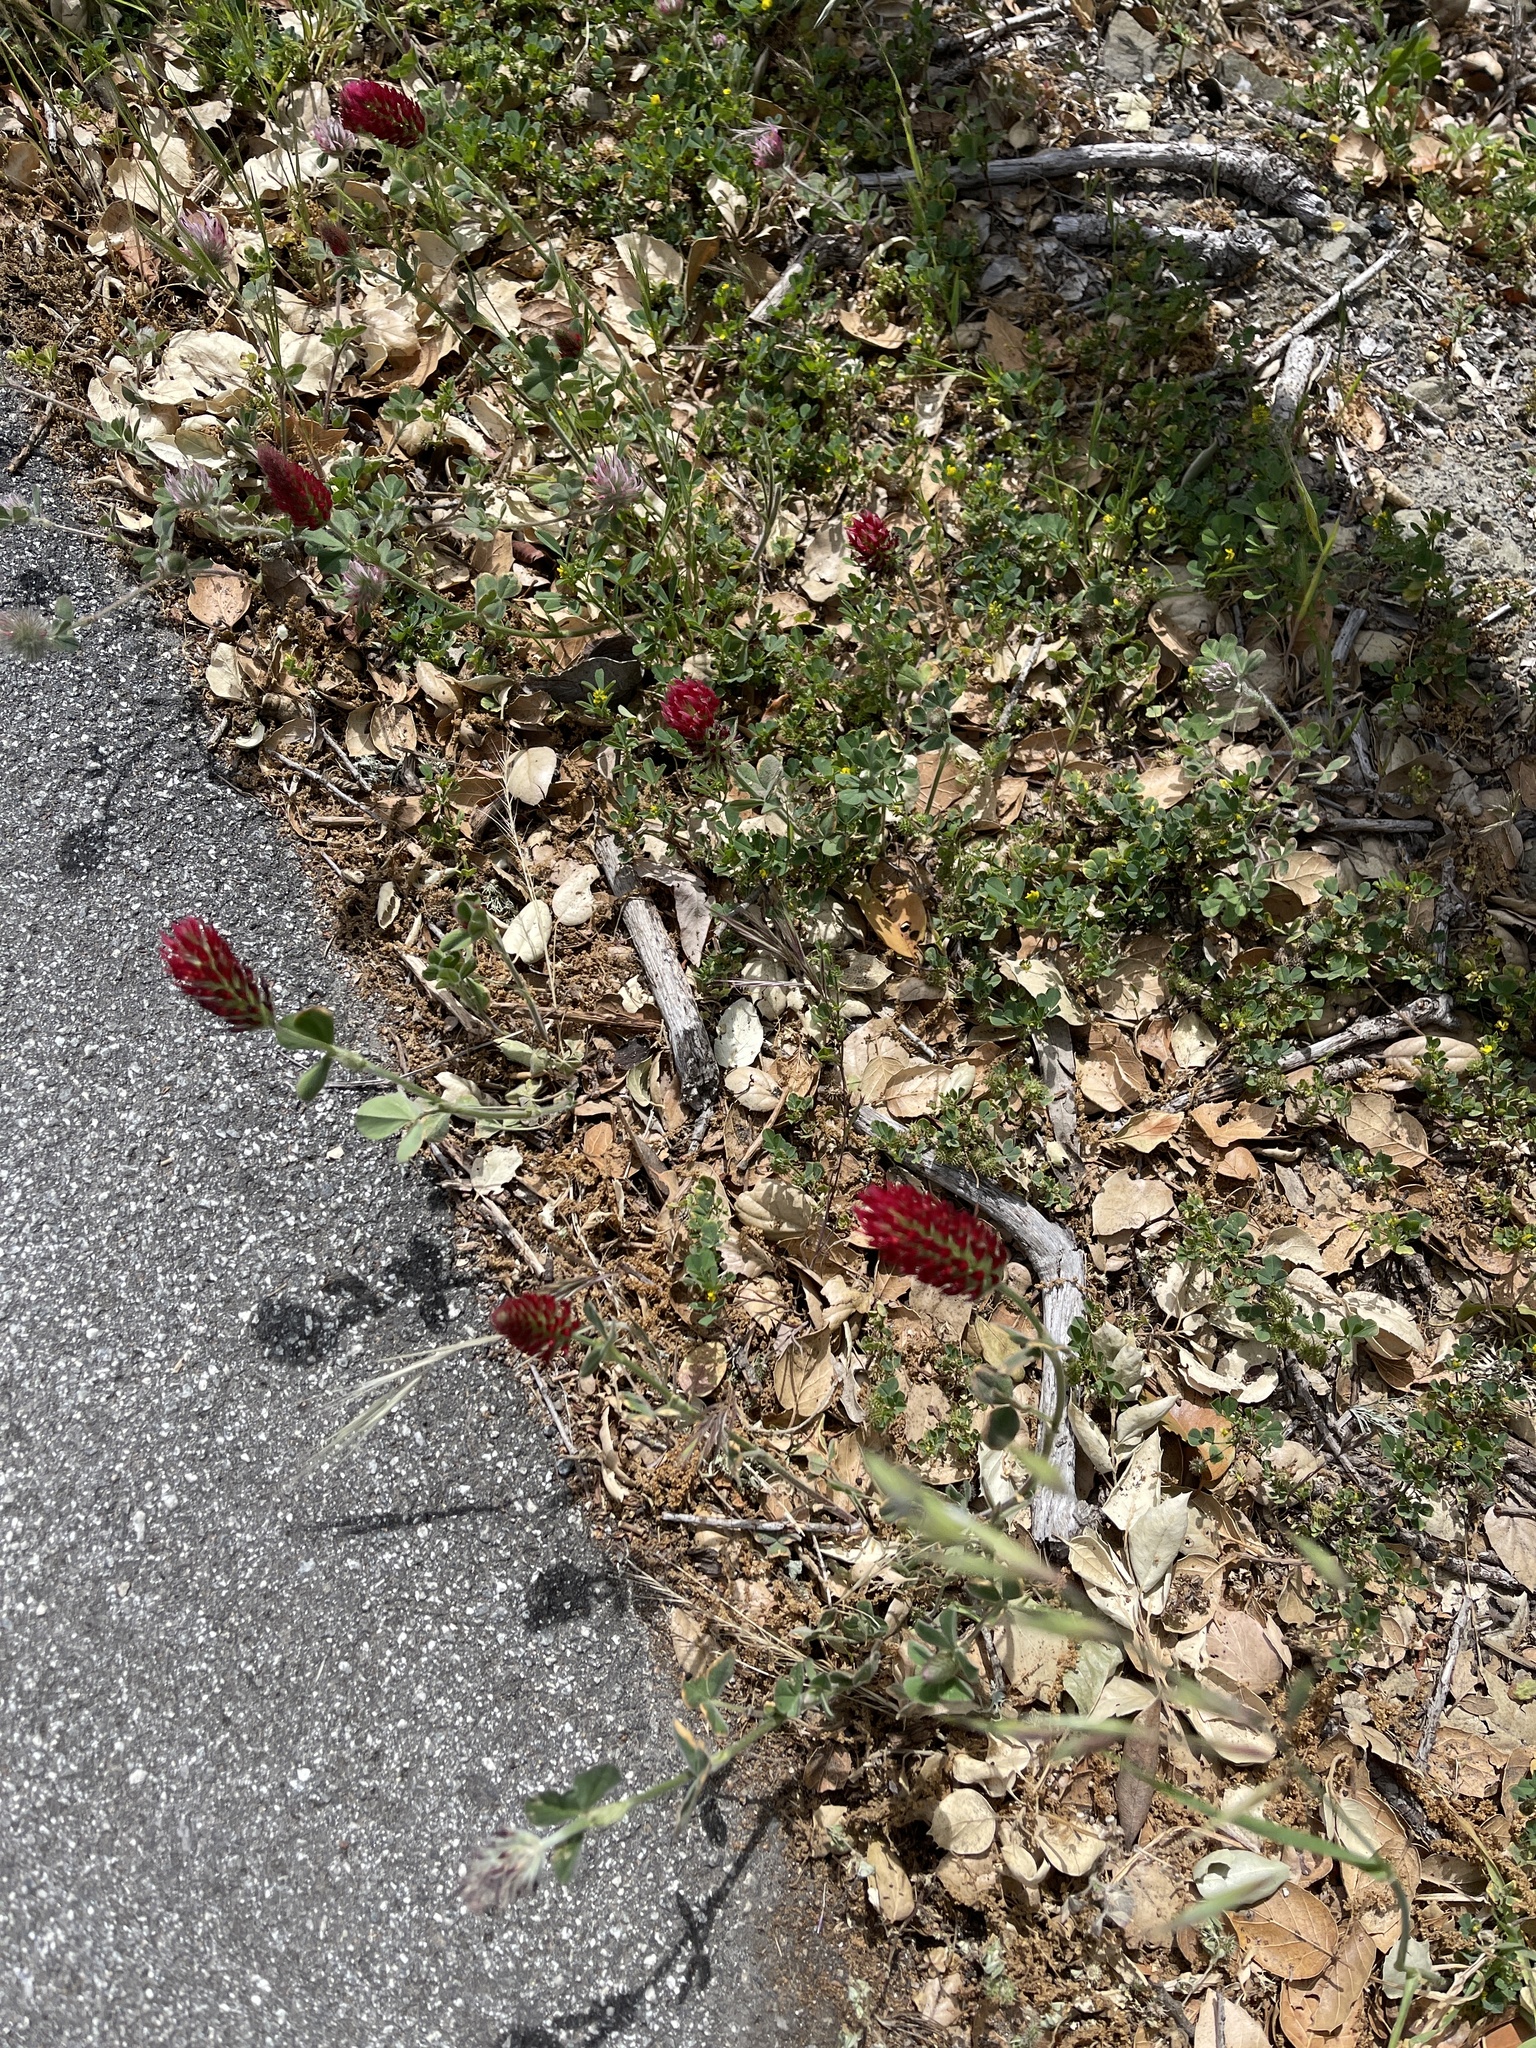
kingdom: Plantae
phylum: Tracheophyta
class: Magnoliopsida
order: Fabales
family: Fabaceae
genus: Trifolium
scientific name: Trifolium incarnatum
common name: Crimson clover
